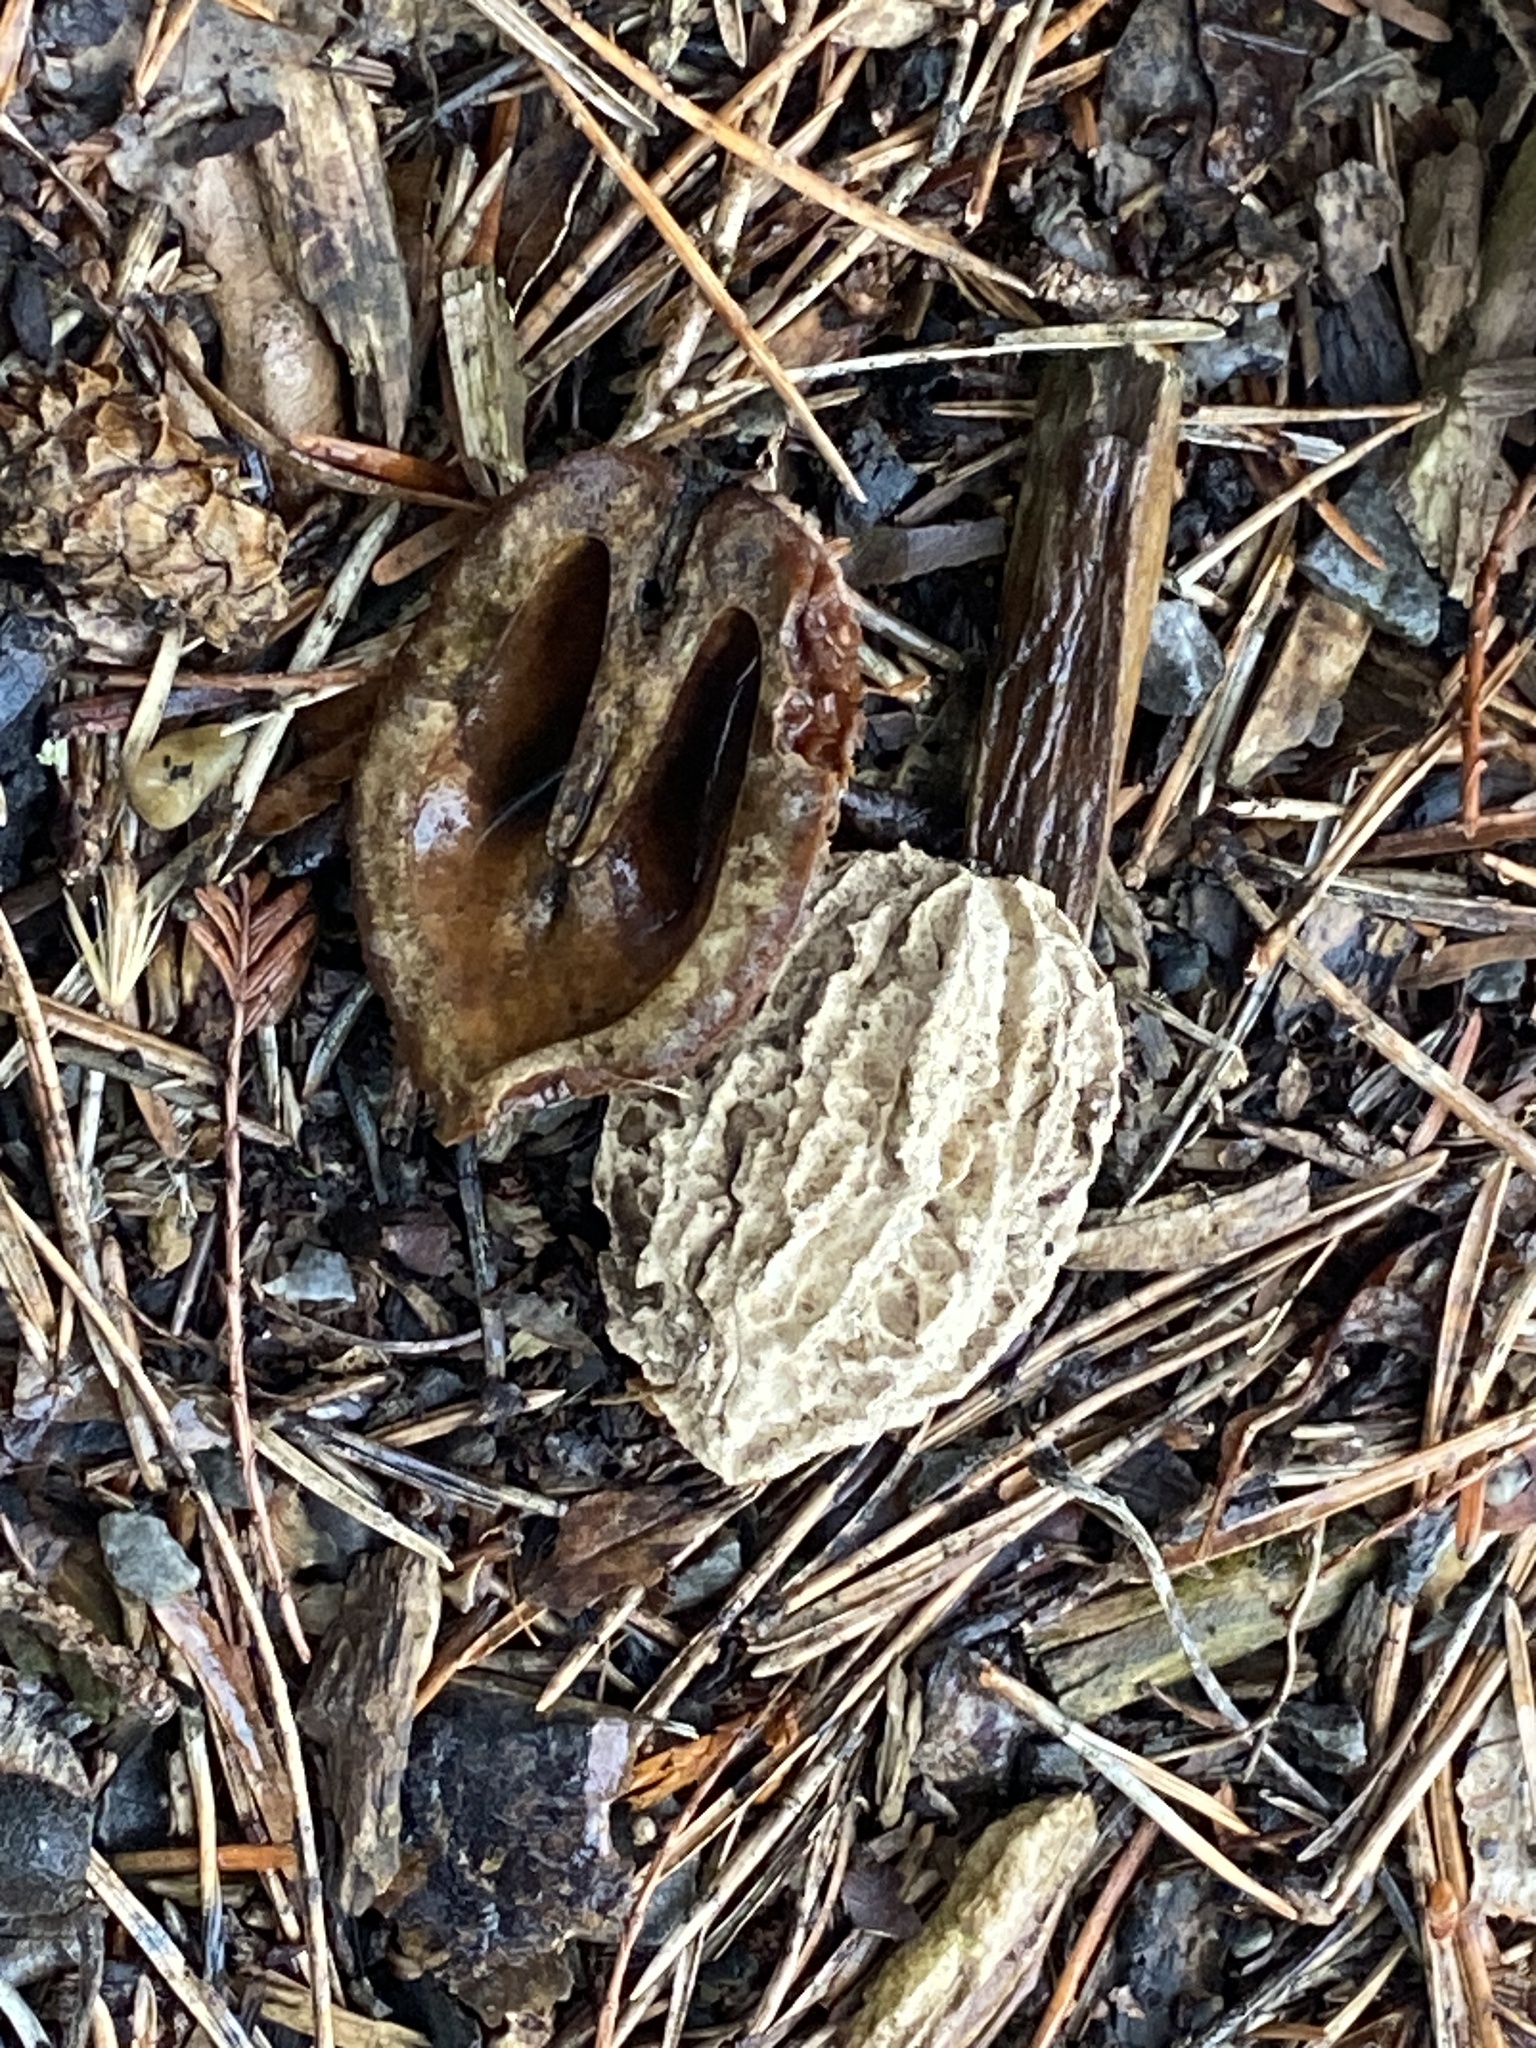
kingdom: Plantae
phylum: Tracheophyta
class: Magnoliopsida
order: Fagales
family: Juglandaceae
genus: Juglans
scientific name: Juglans cinerea
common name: Butternut
